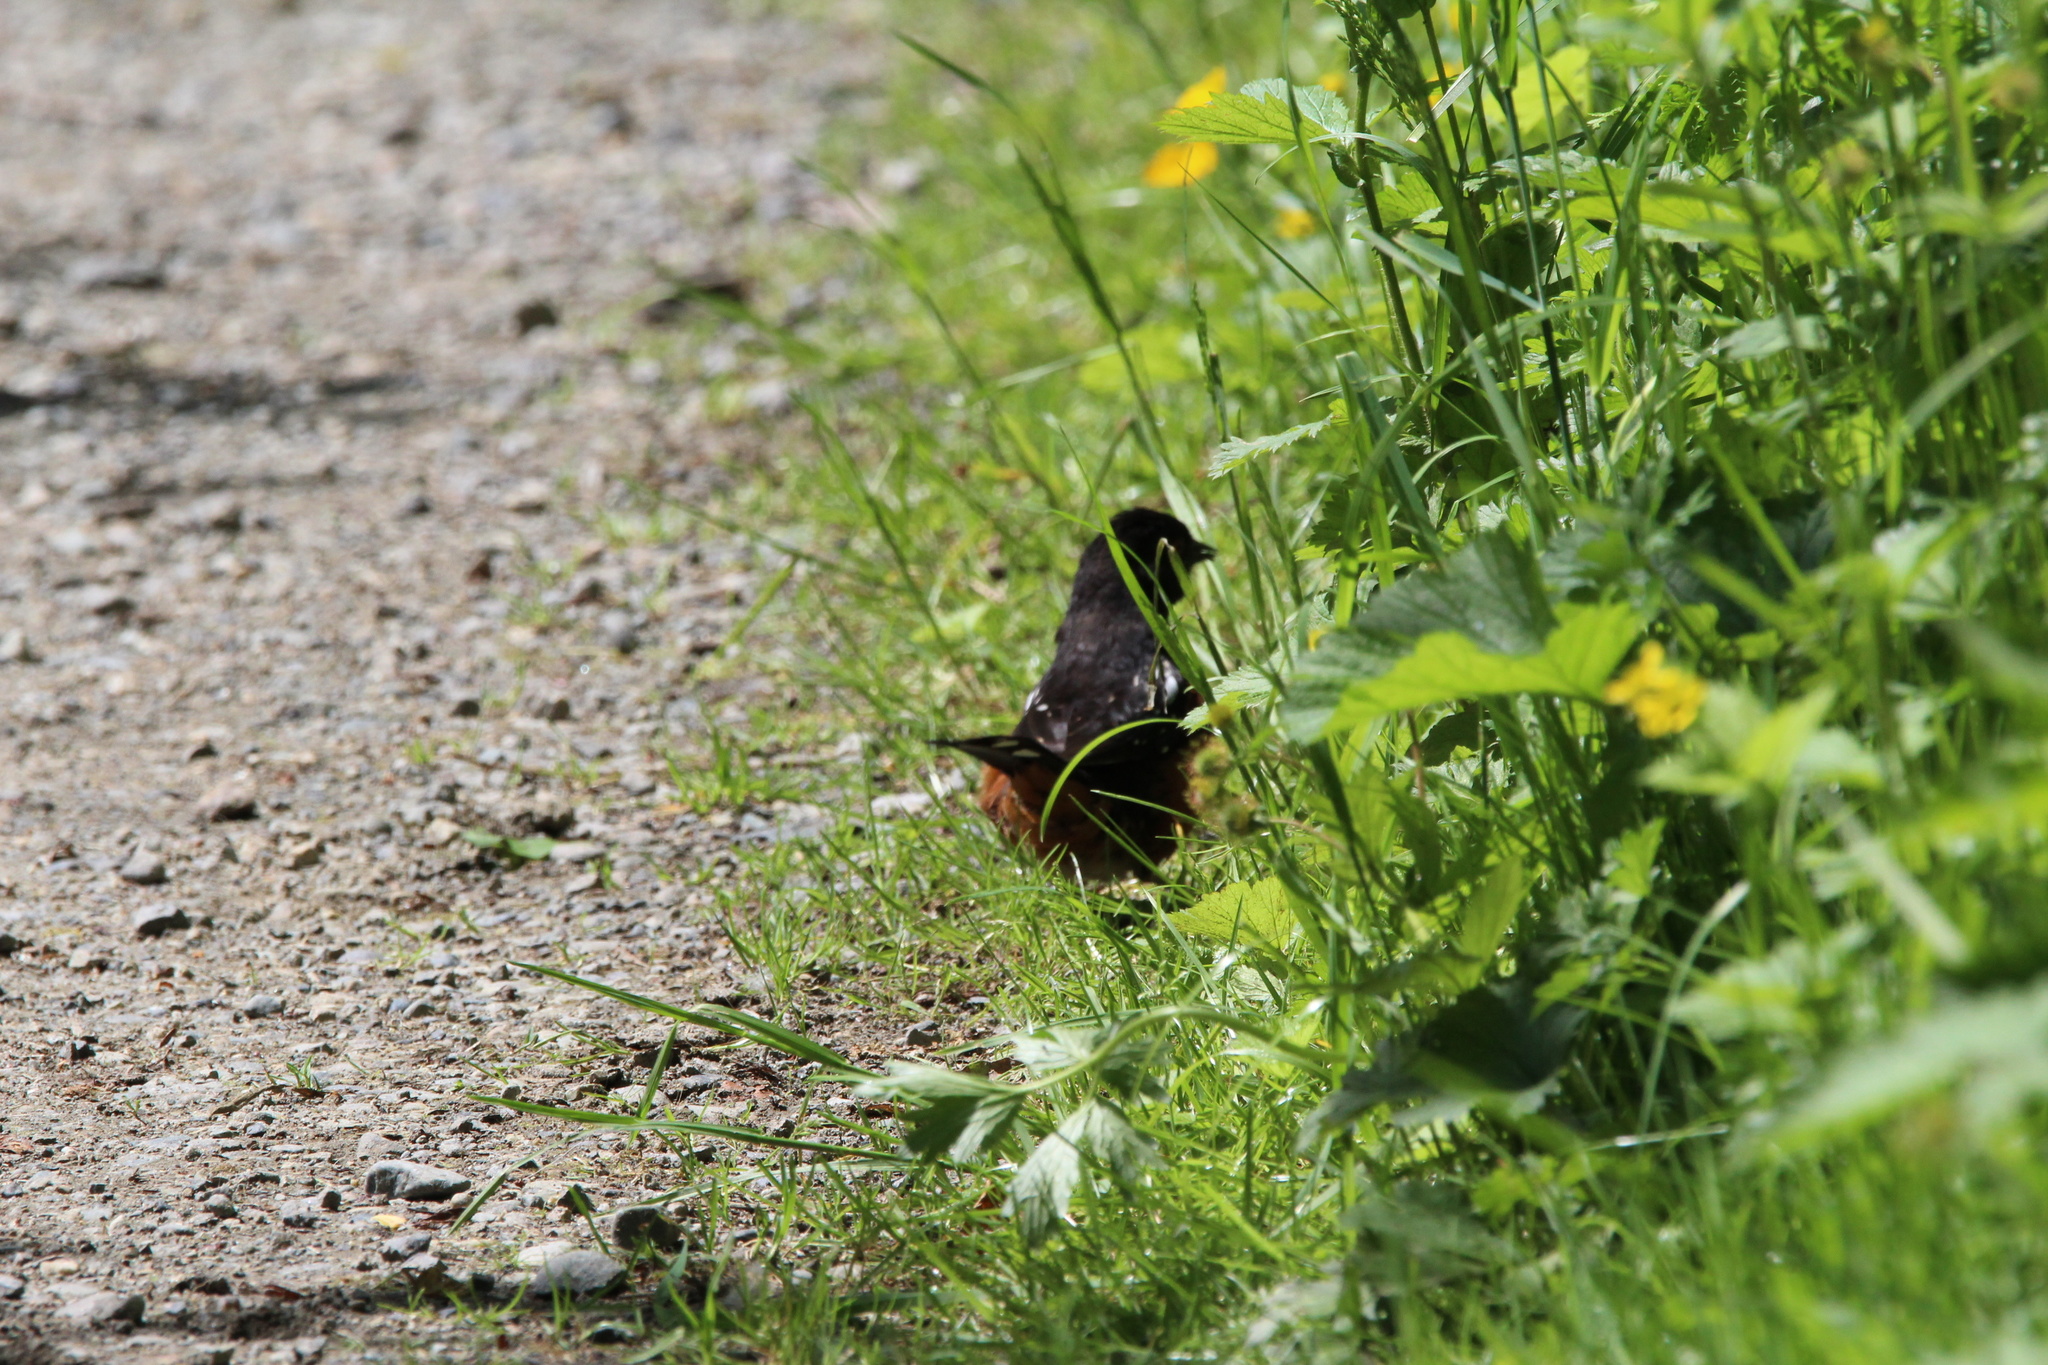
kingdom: Animalia
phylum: Chordata
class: Aves
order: Passeriformes
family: Passerellidae
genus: Pipilo
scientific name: Pipilo maculatus
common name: Spotted towhee
